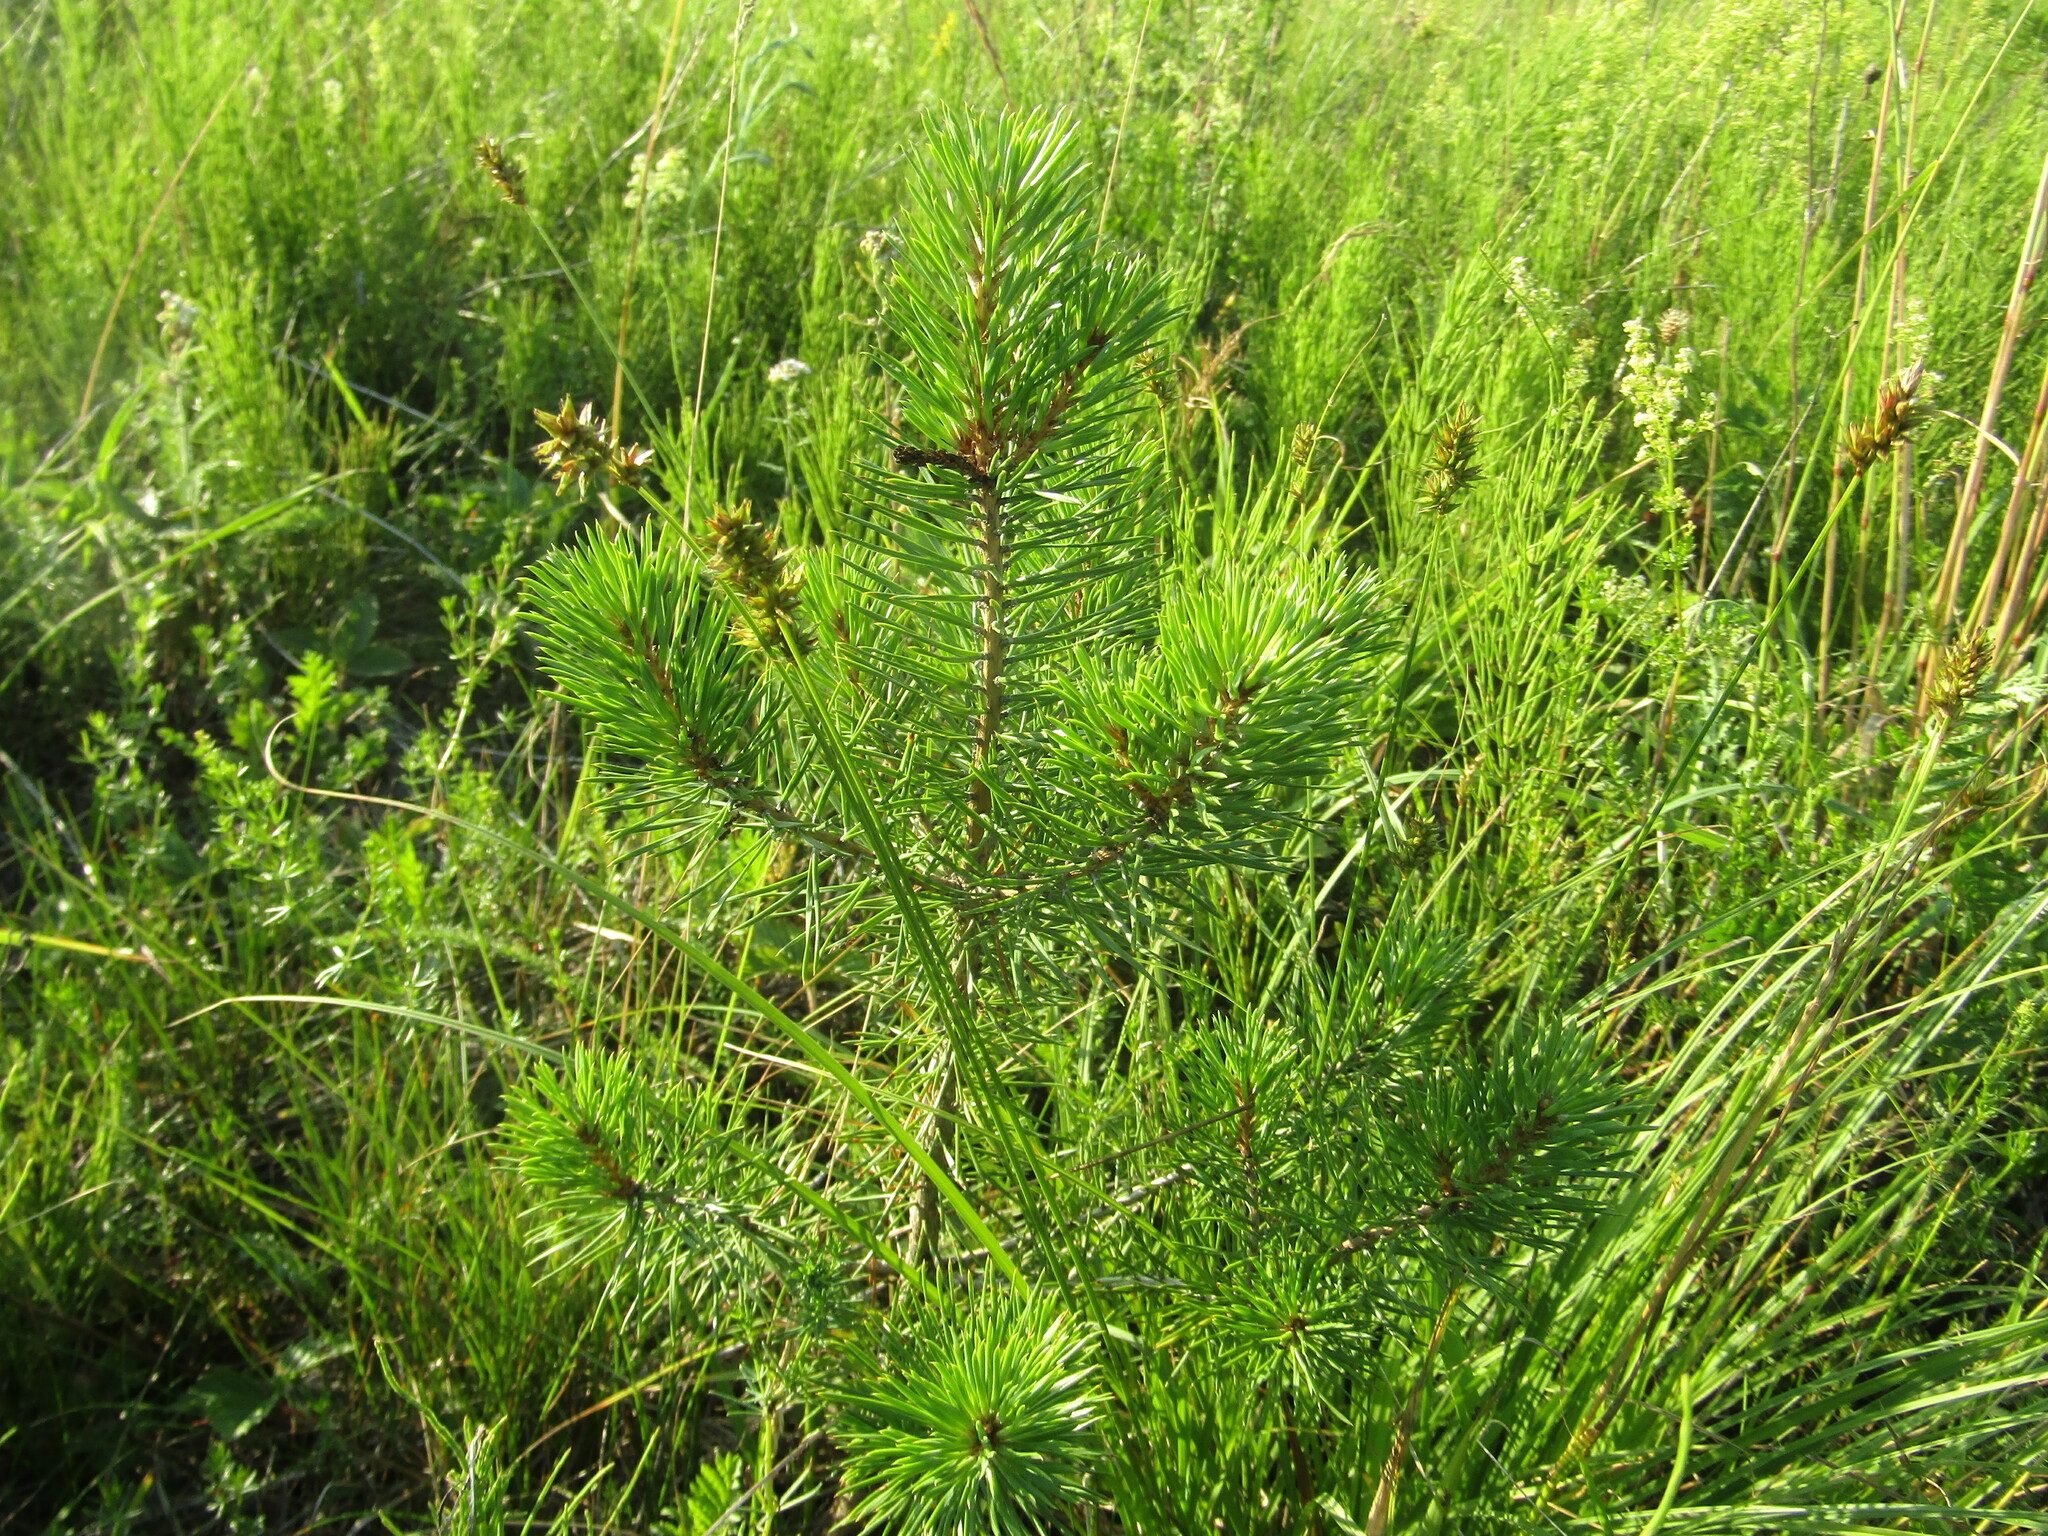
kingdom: Plantae
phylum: Tracheophyta
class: Pinopsida
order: Pinales
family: Pinaceae
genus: Pinus
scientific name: Pinus sylvestris
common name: Scots pine
